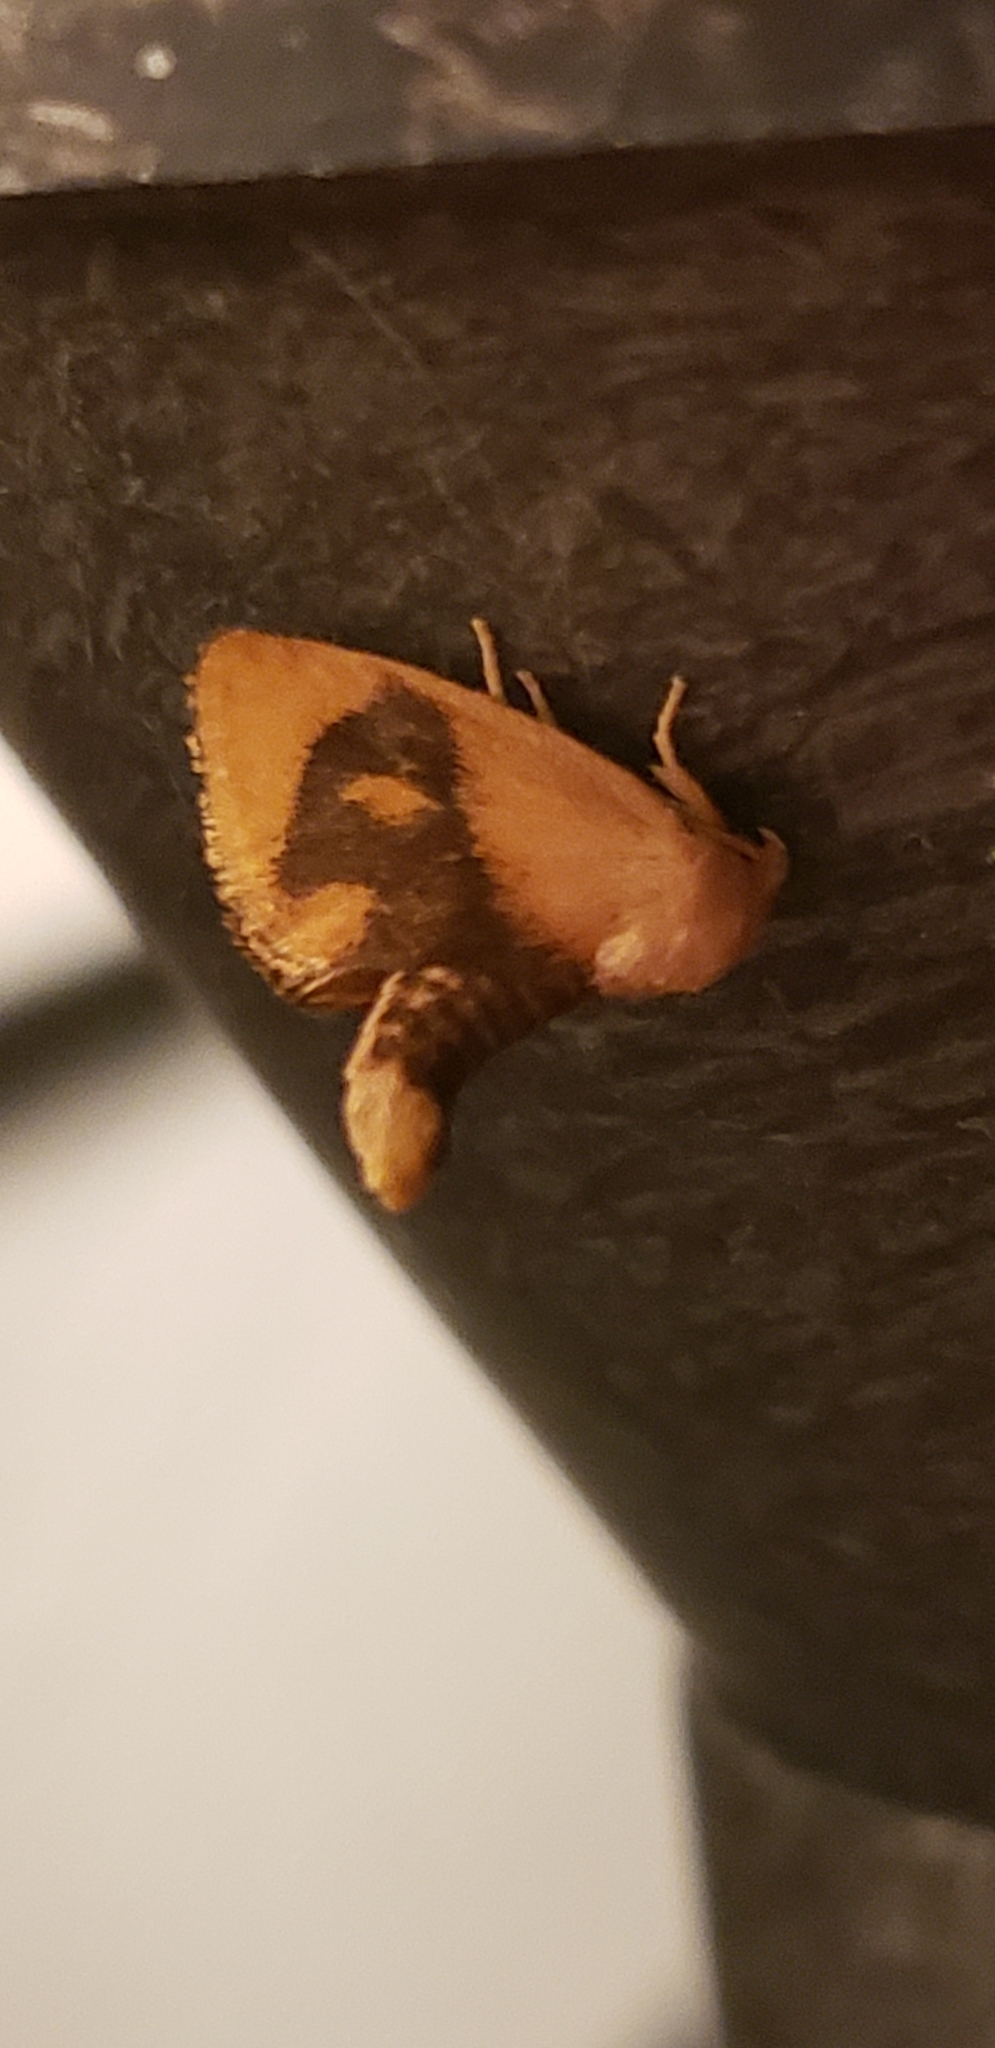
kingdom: Animalia
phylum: Arthropoda
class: Insecta
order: Lepidoptera
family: Limacodidae
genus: Tortricidia
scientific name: Tortricidia flexuosa
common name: Abbreviated button slug moth
